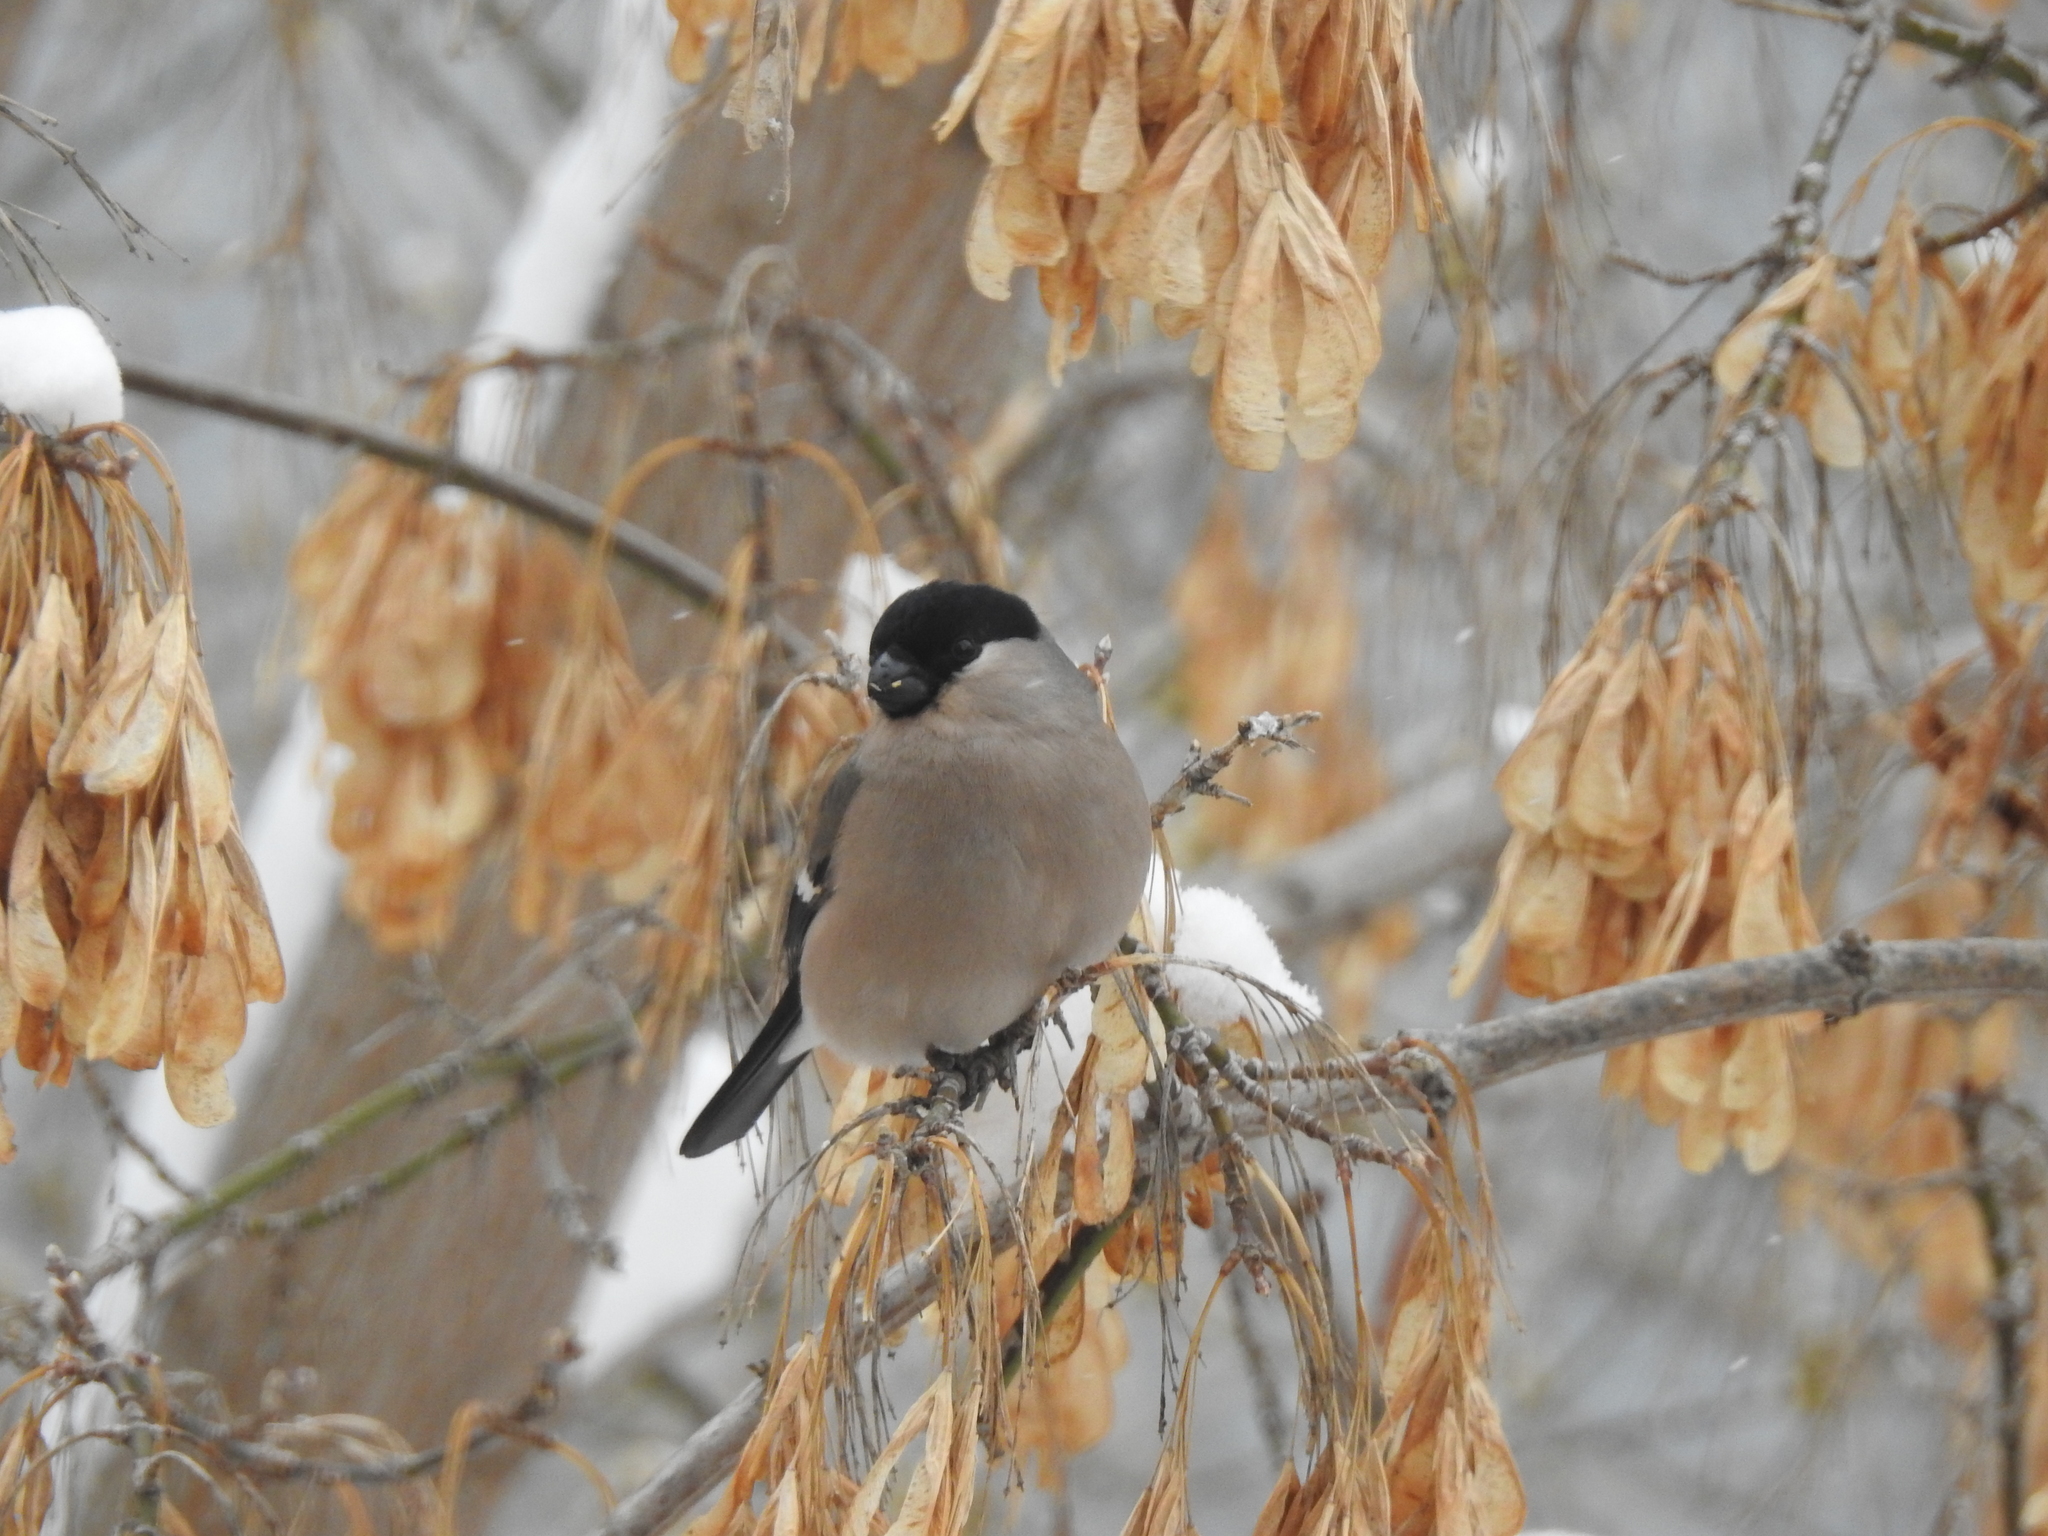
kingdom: Animalia
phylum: Chordata
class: Aves
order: Passeriformes
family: Fringillidae
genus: Pyrrhula
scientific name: Pyrrhula pyrrhula
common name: Eurasian bullfinch
